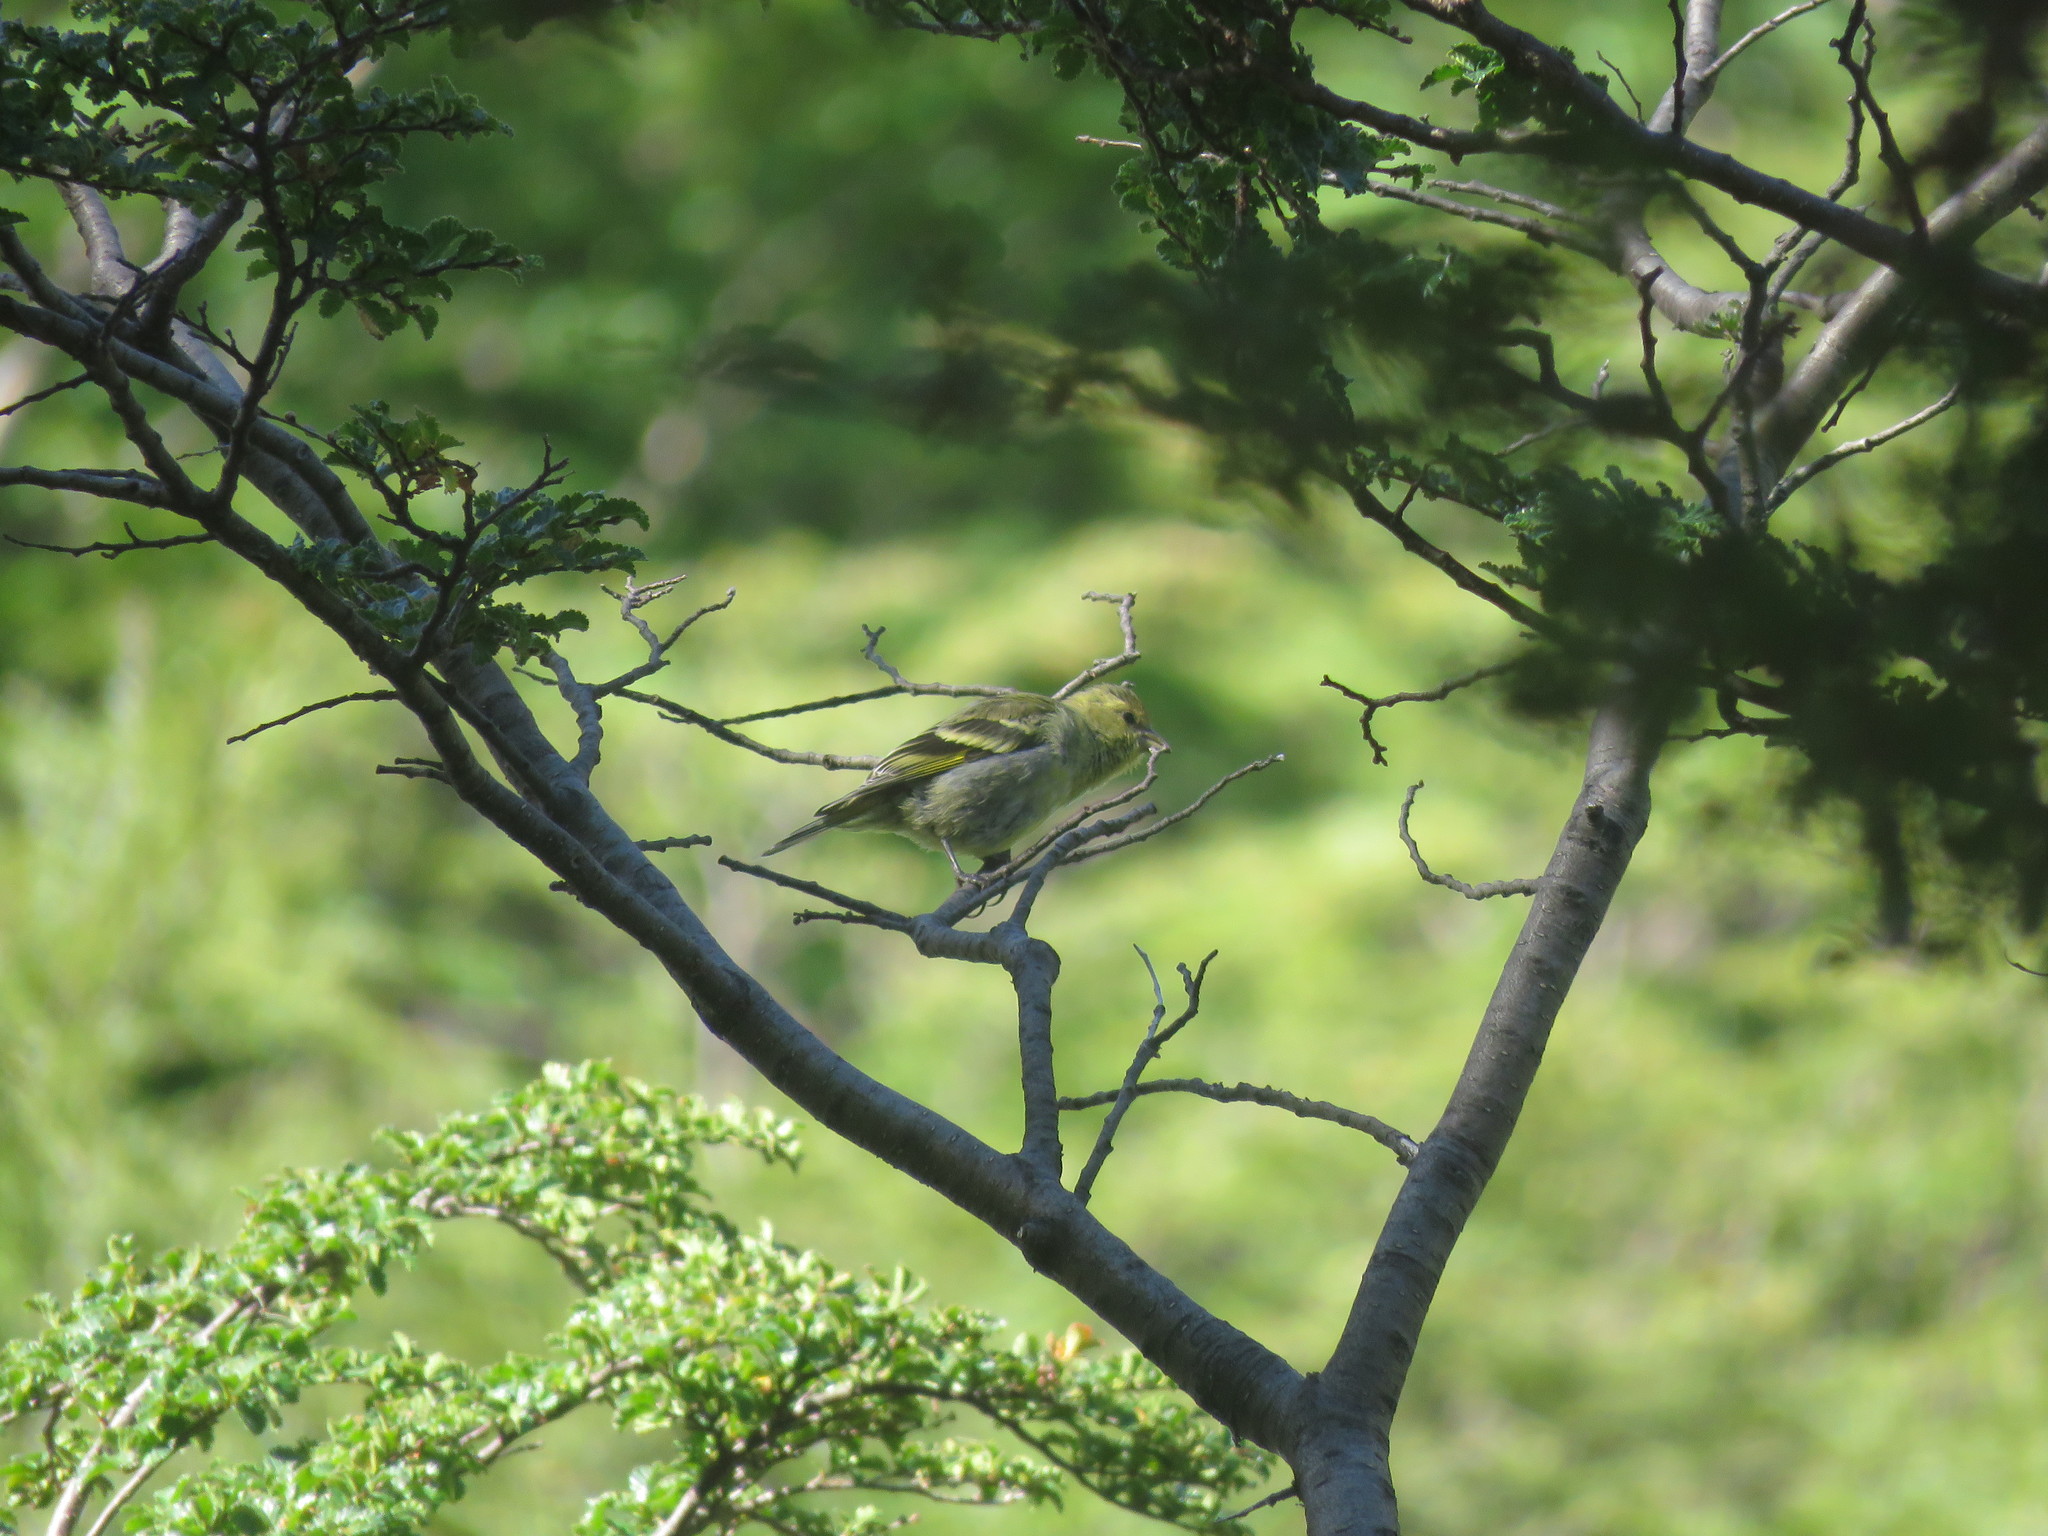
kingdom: Animalia
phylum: Chordata
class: Aves
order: Passeriformes
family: Fringillidae
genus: Spinus
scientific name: Spinus barbatus
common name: Black-chinned siskin
